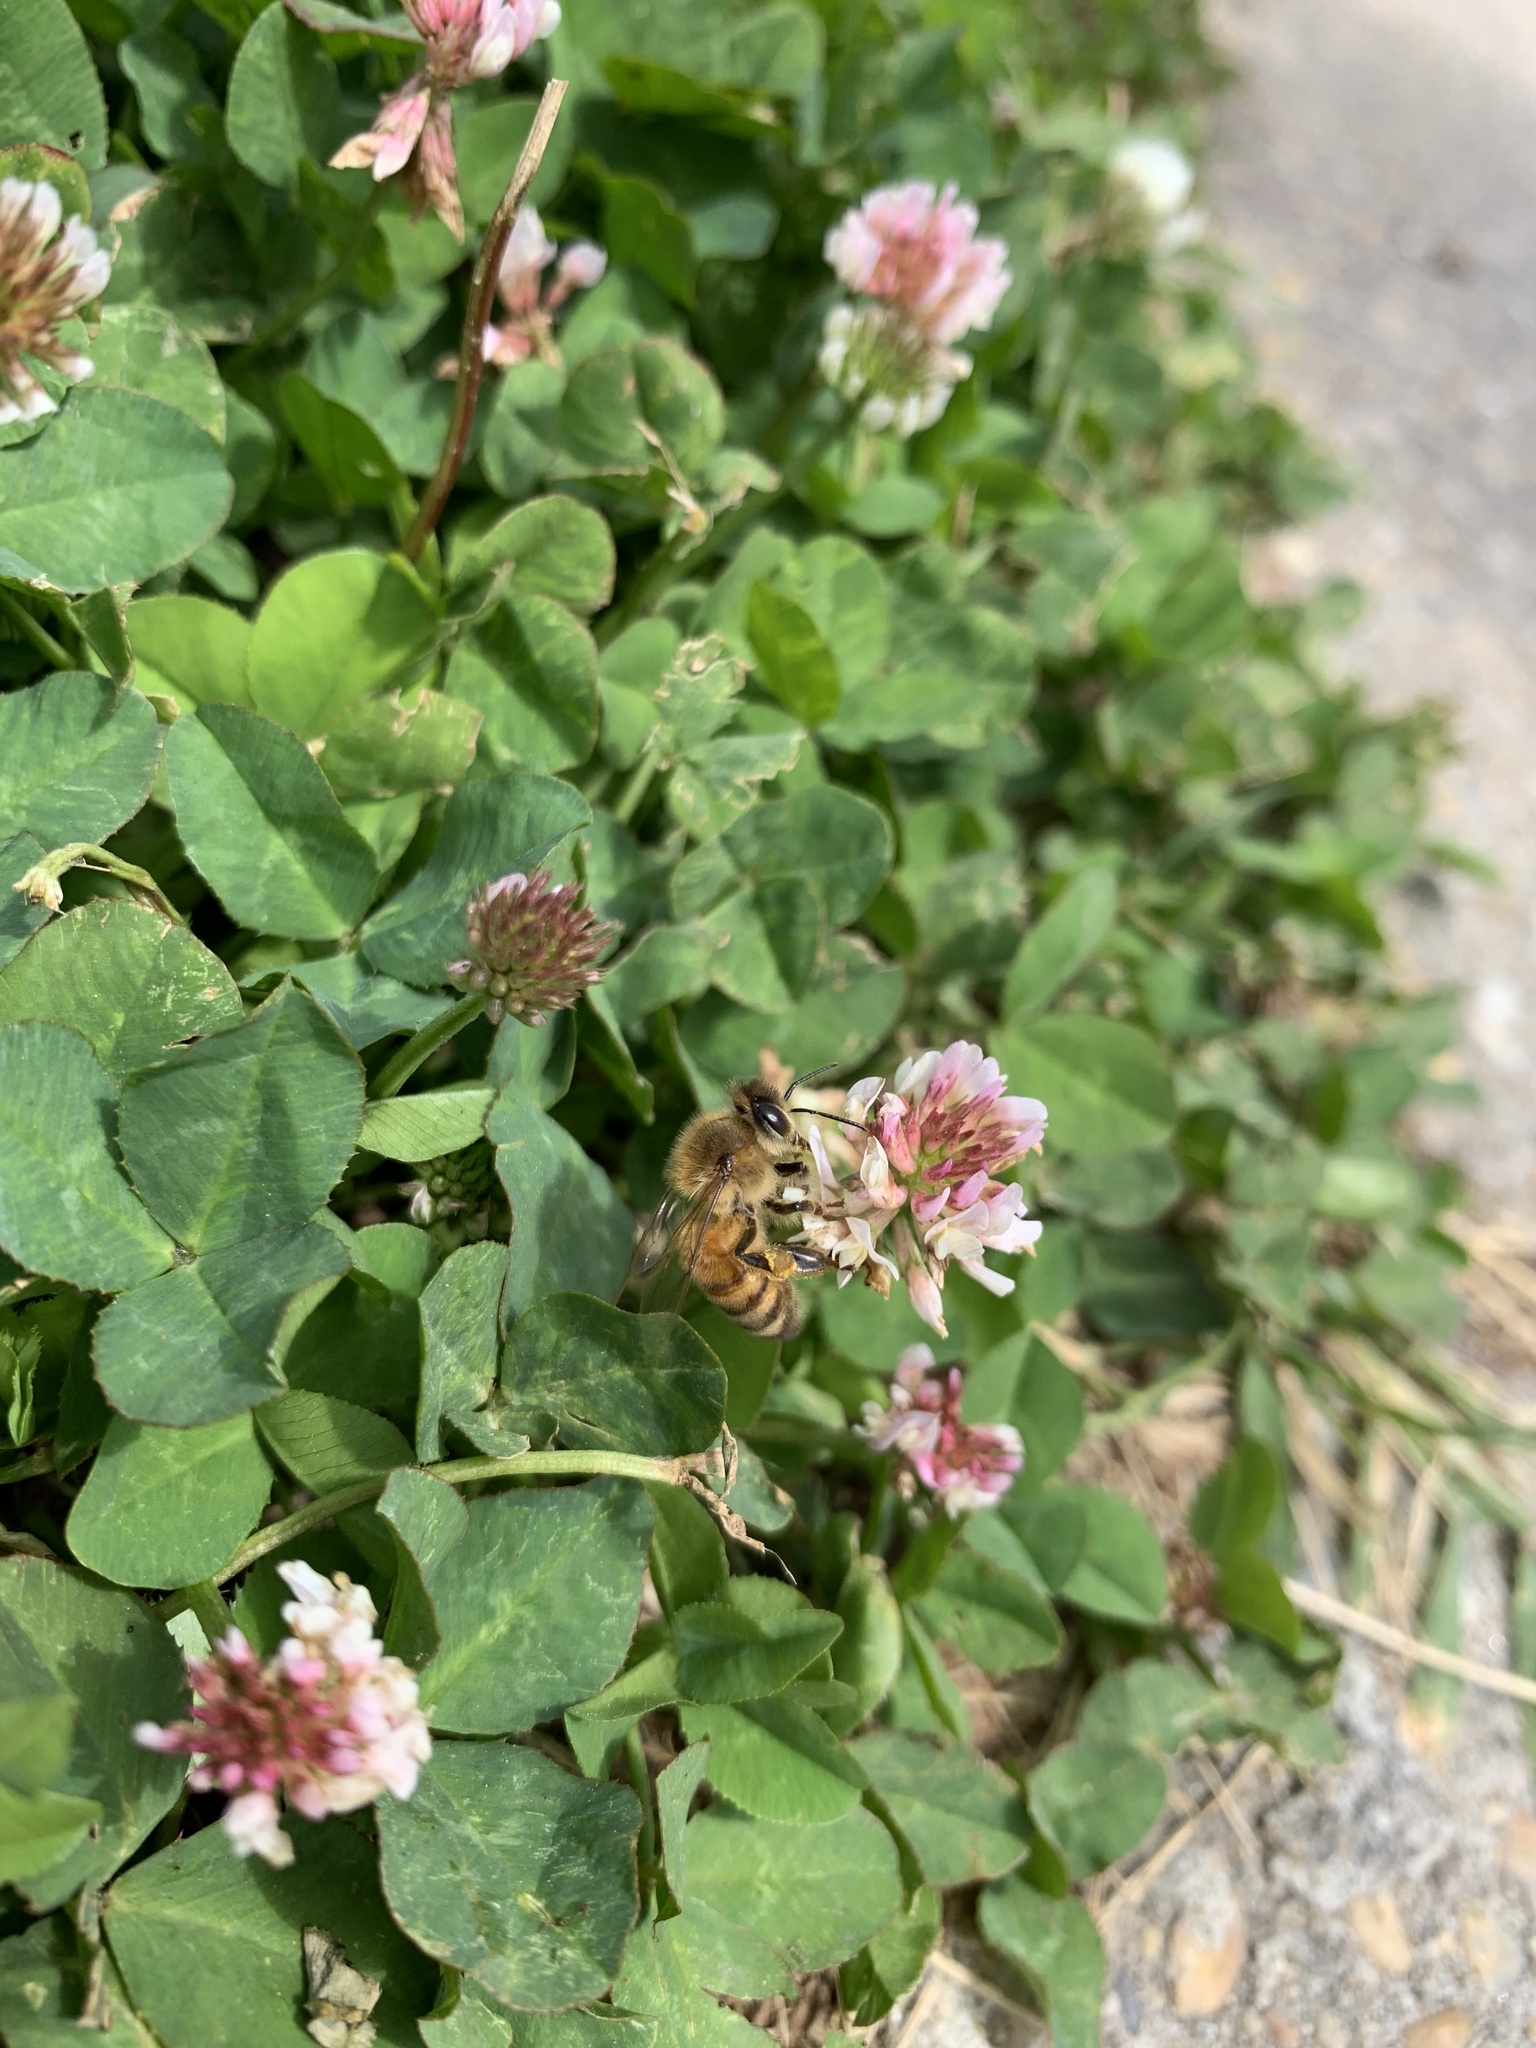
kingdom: Animalia
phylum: Arthropoda
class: Insecta
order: Hymenoptera
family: Apidae
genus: Apis
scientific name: Apis mellifera
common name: Honey bee
